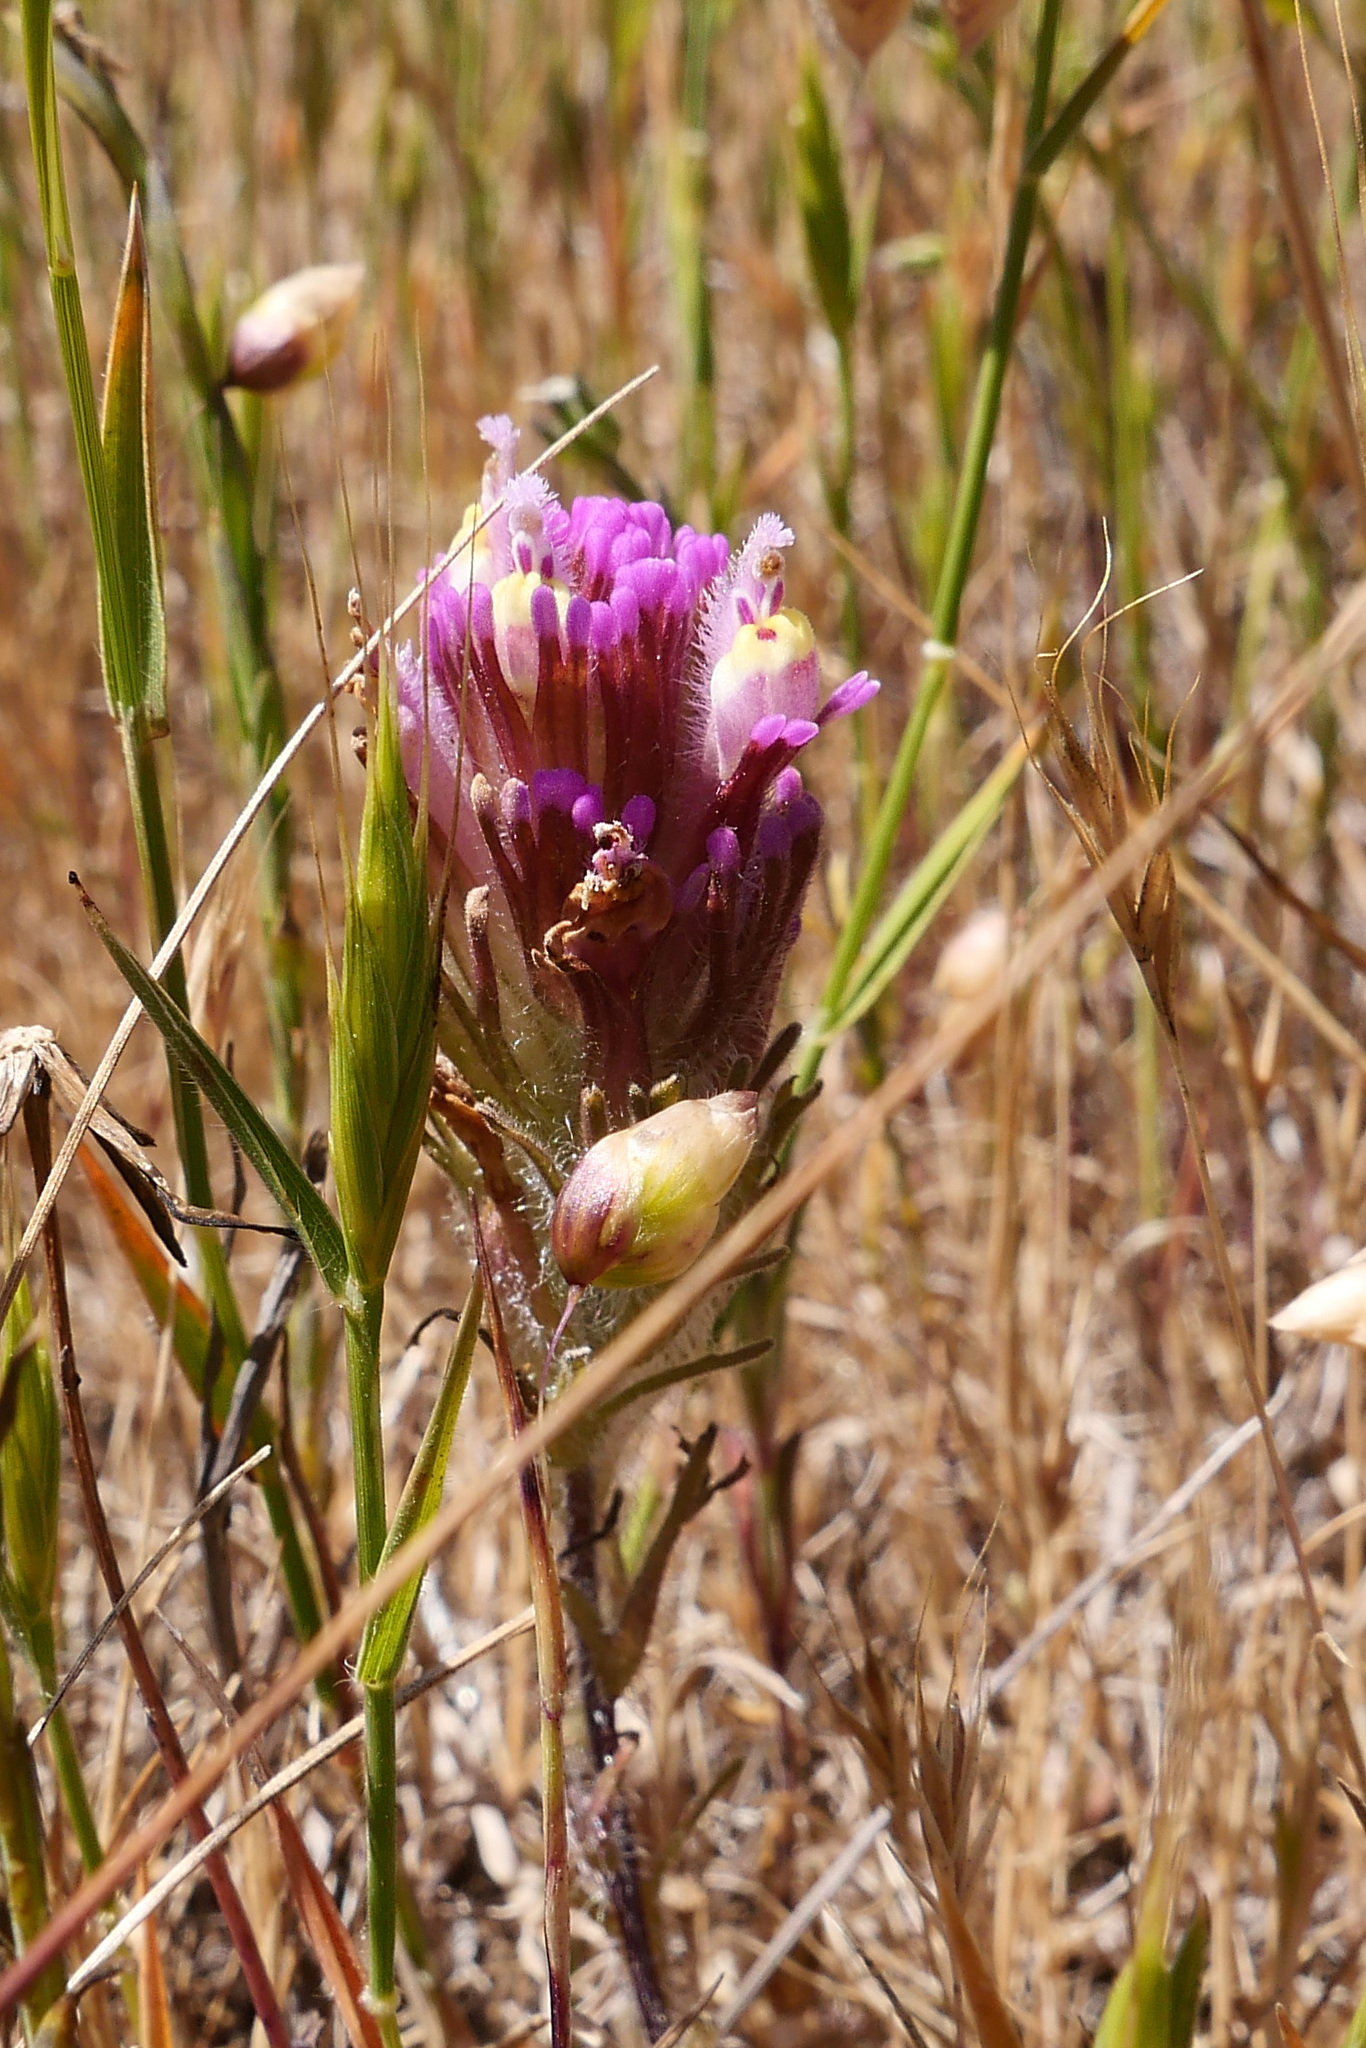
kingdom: Plantae
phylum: Tracheophyta
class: Magnoliopsida
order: Lamiales
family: Orobanchaceae
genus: Castilleja
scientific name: Castilleja exserta
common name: Purple owl-clover
